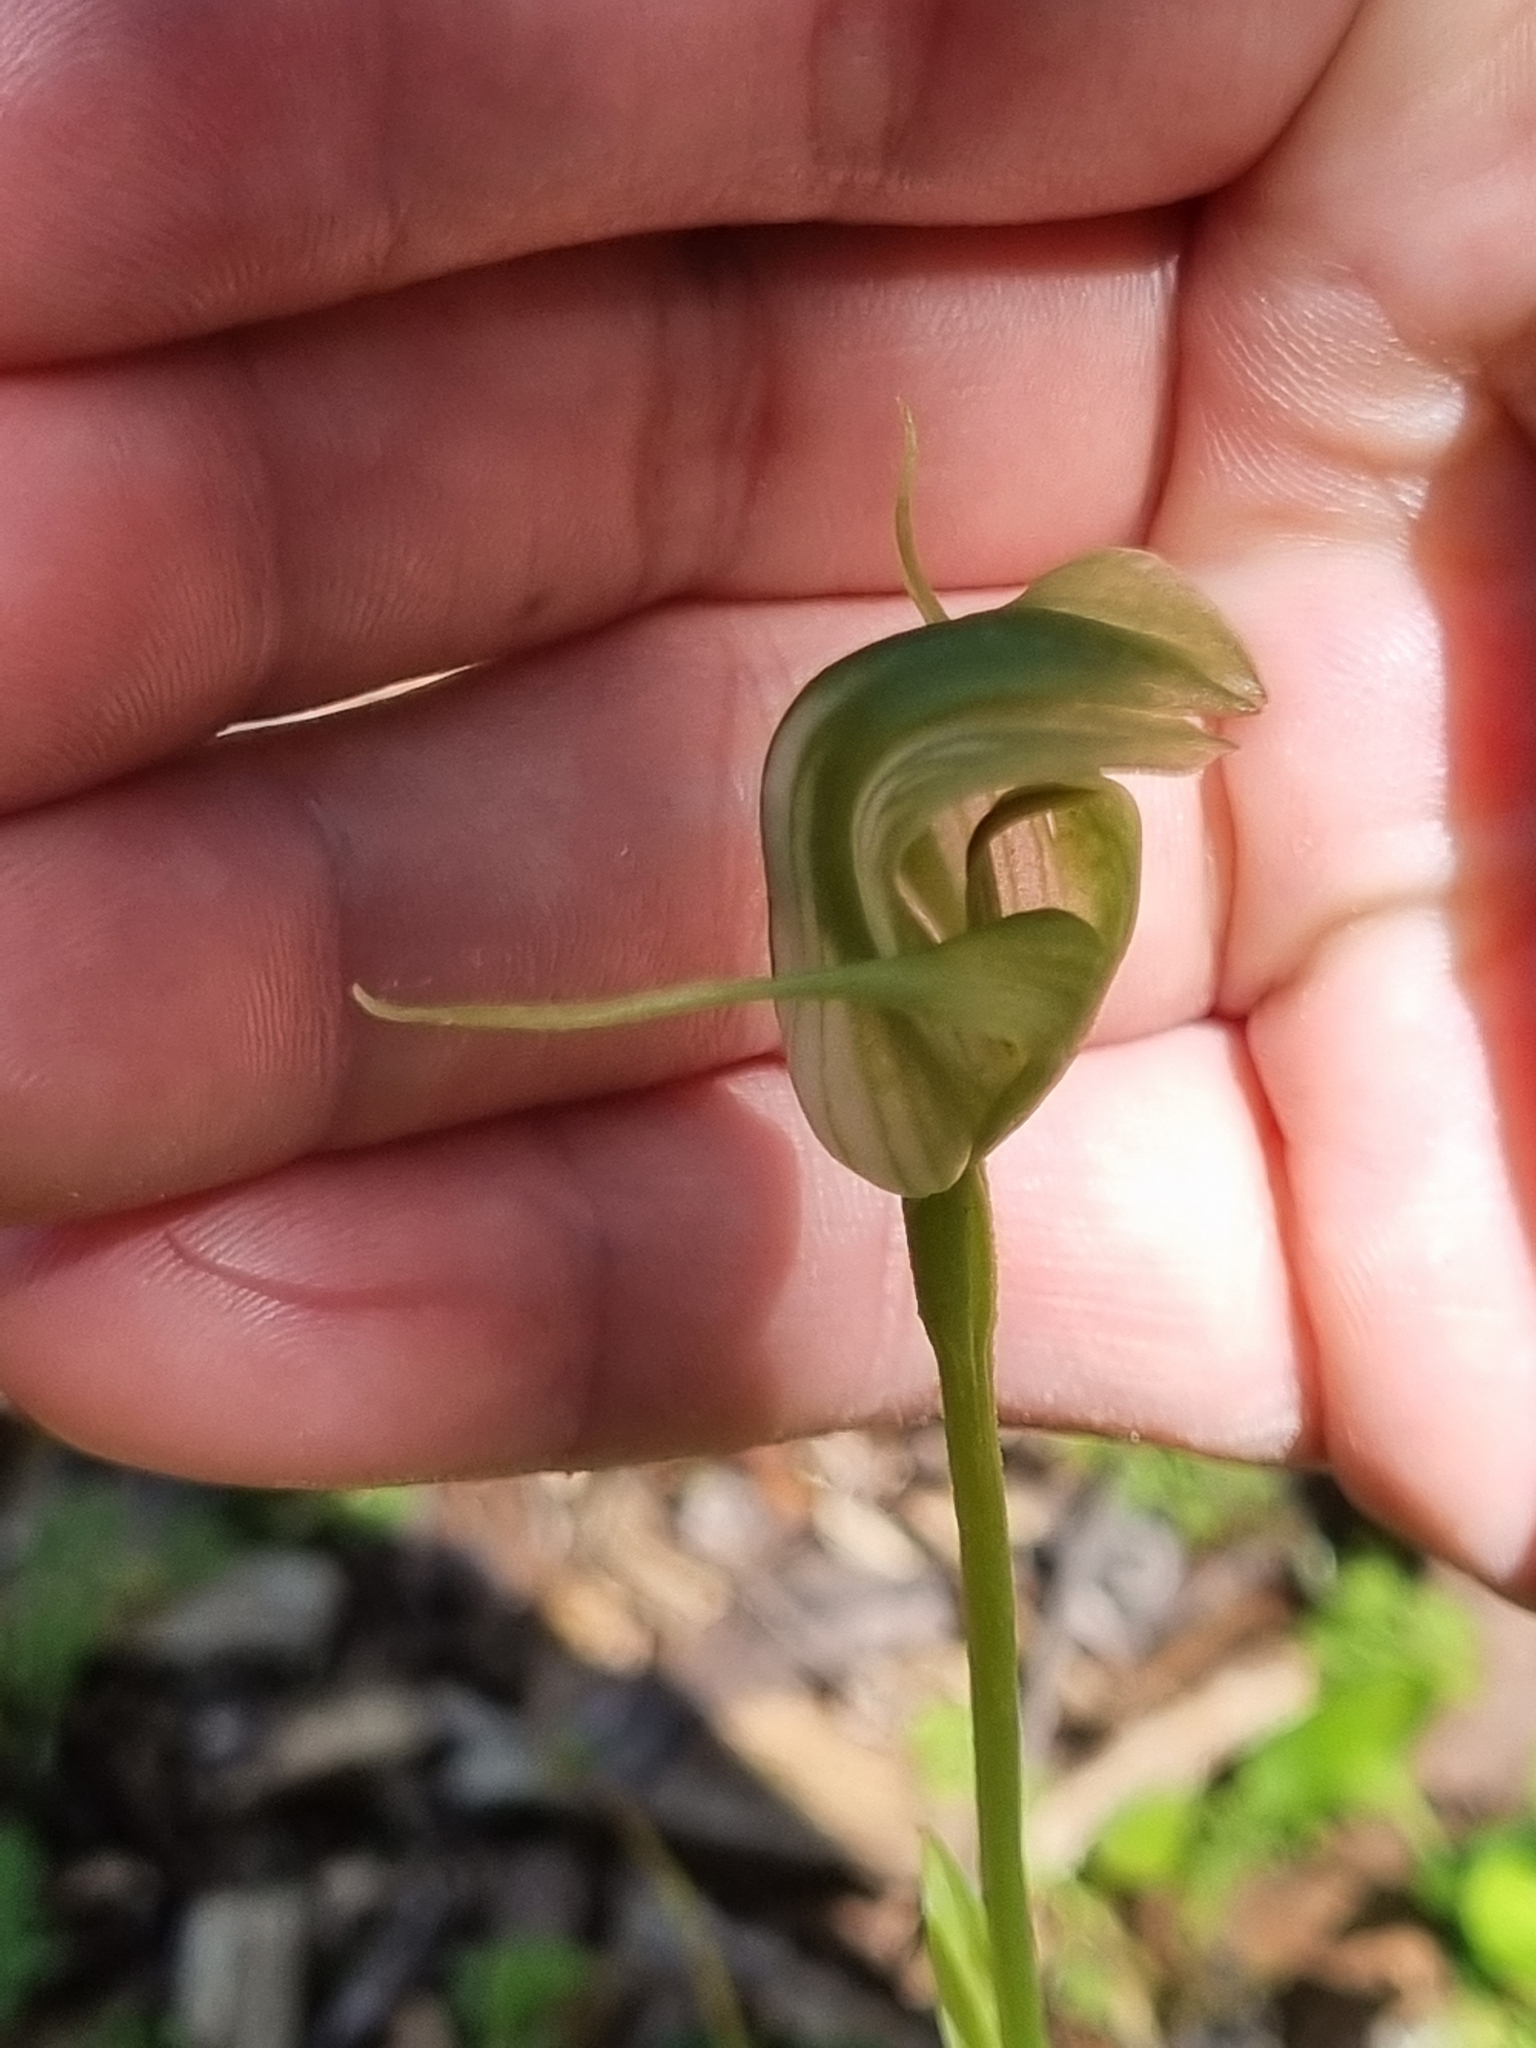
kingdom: Plantae
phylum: Tracheophyta
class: Liliopsida
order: Asparagales
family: Orchidaceae
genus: Pterostylis
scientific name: Pterostylis alpina
